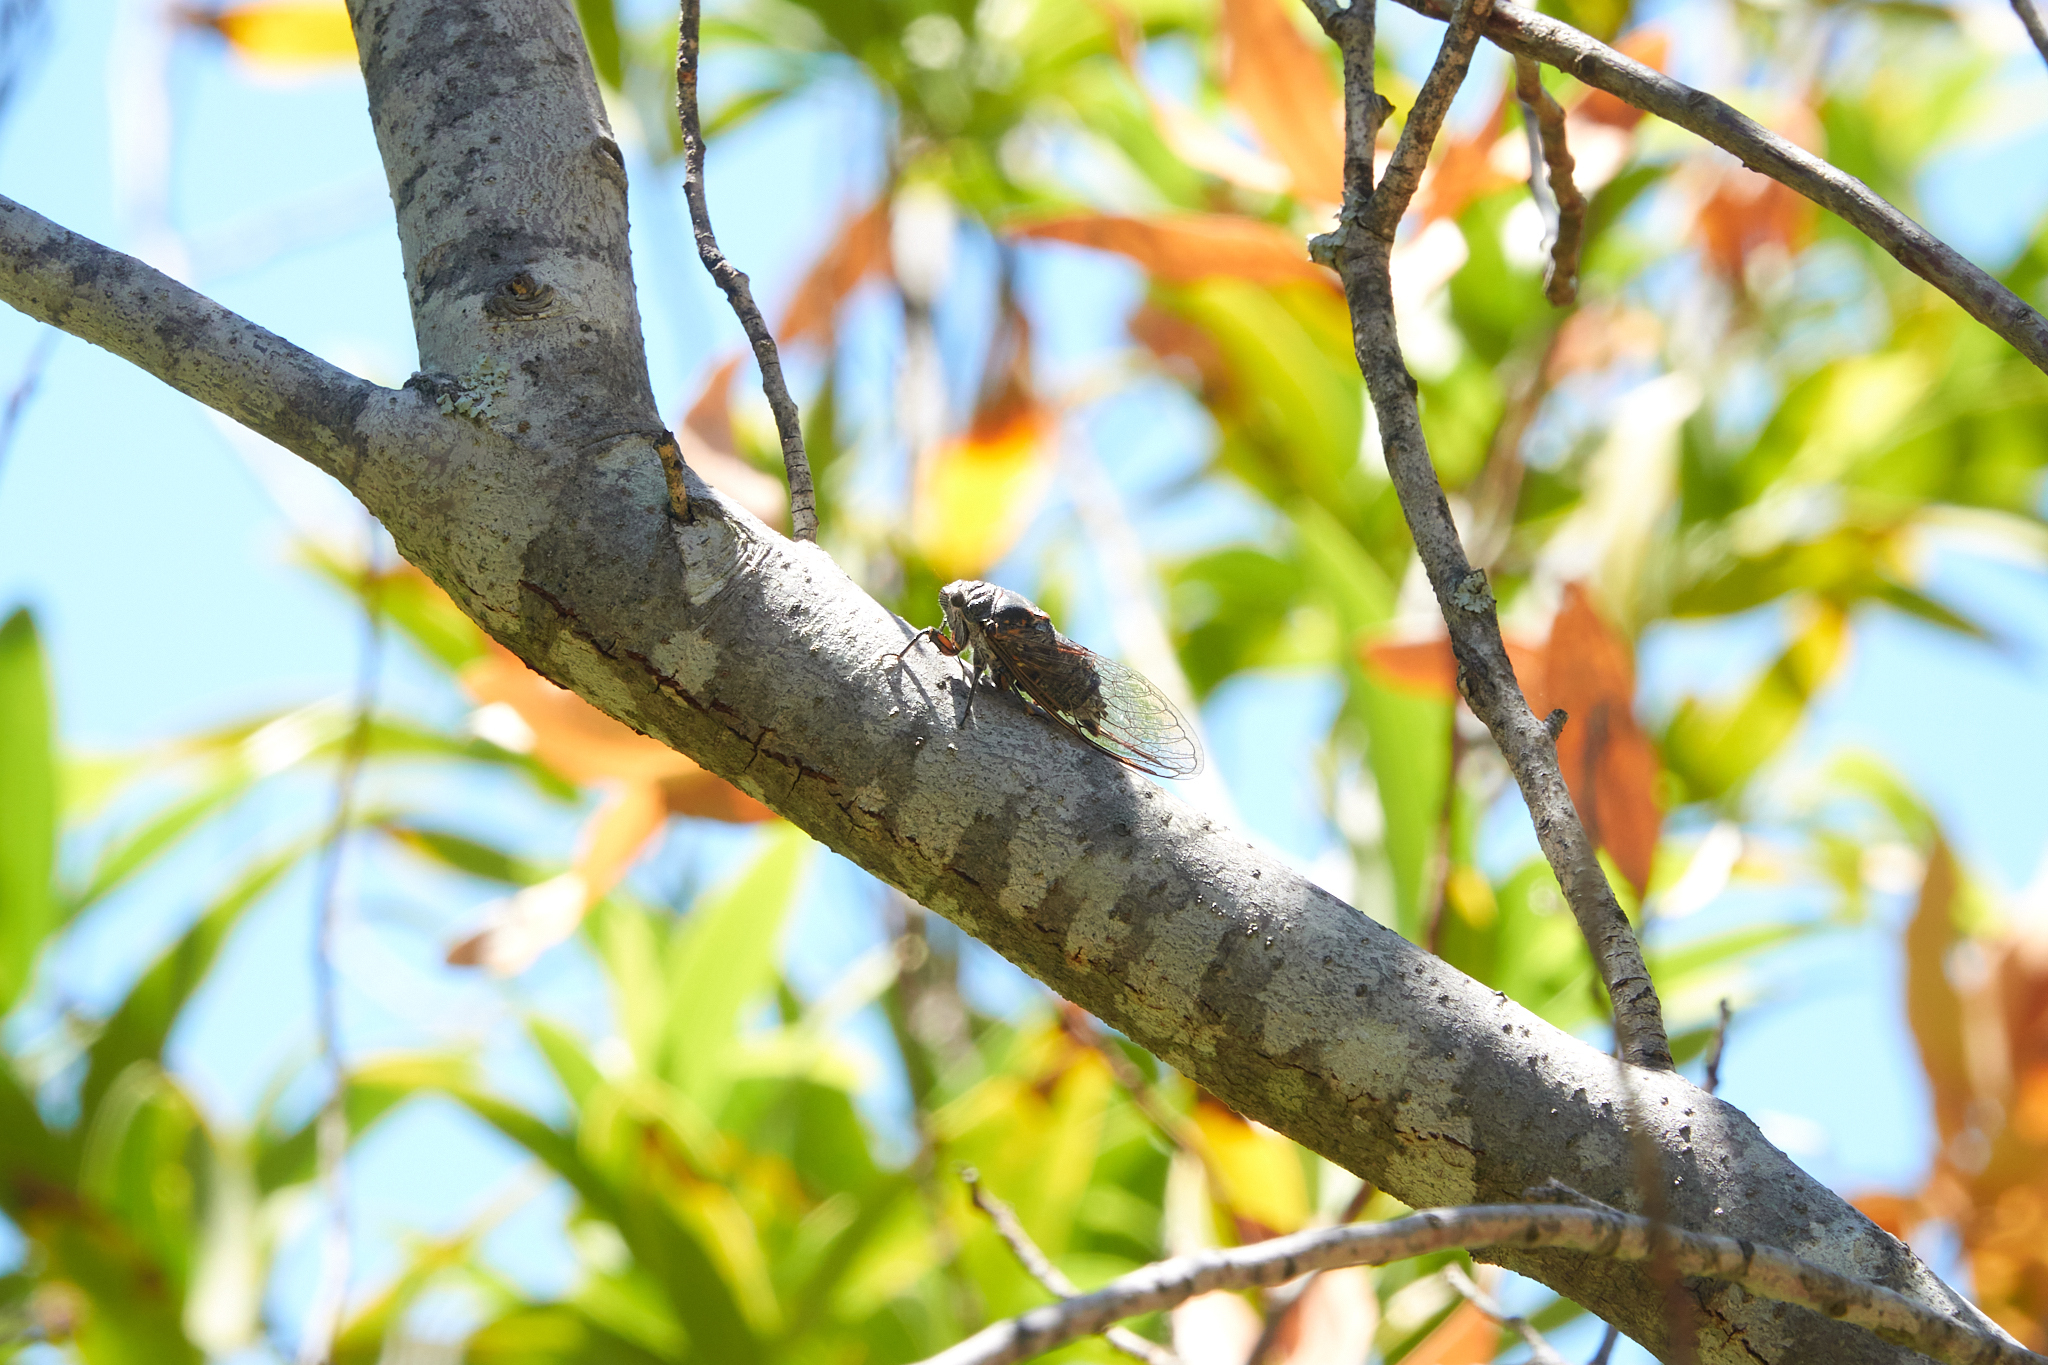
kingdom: Animalia
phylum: Arthropoda
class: Insecta
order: Hemiptera
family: Cicadidae
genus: Okanagana
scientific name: Okanagana canescens
